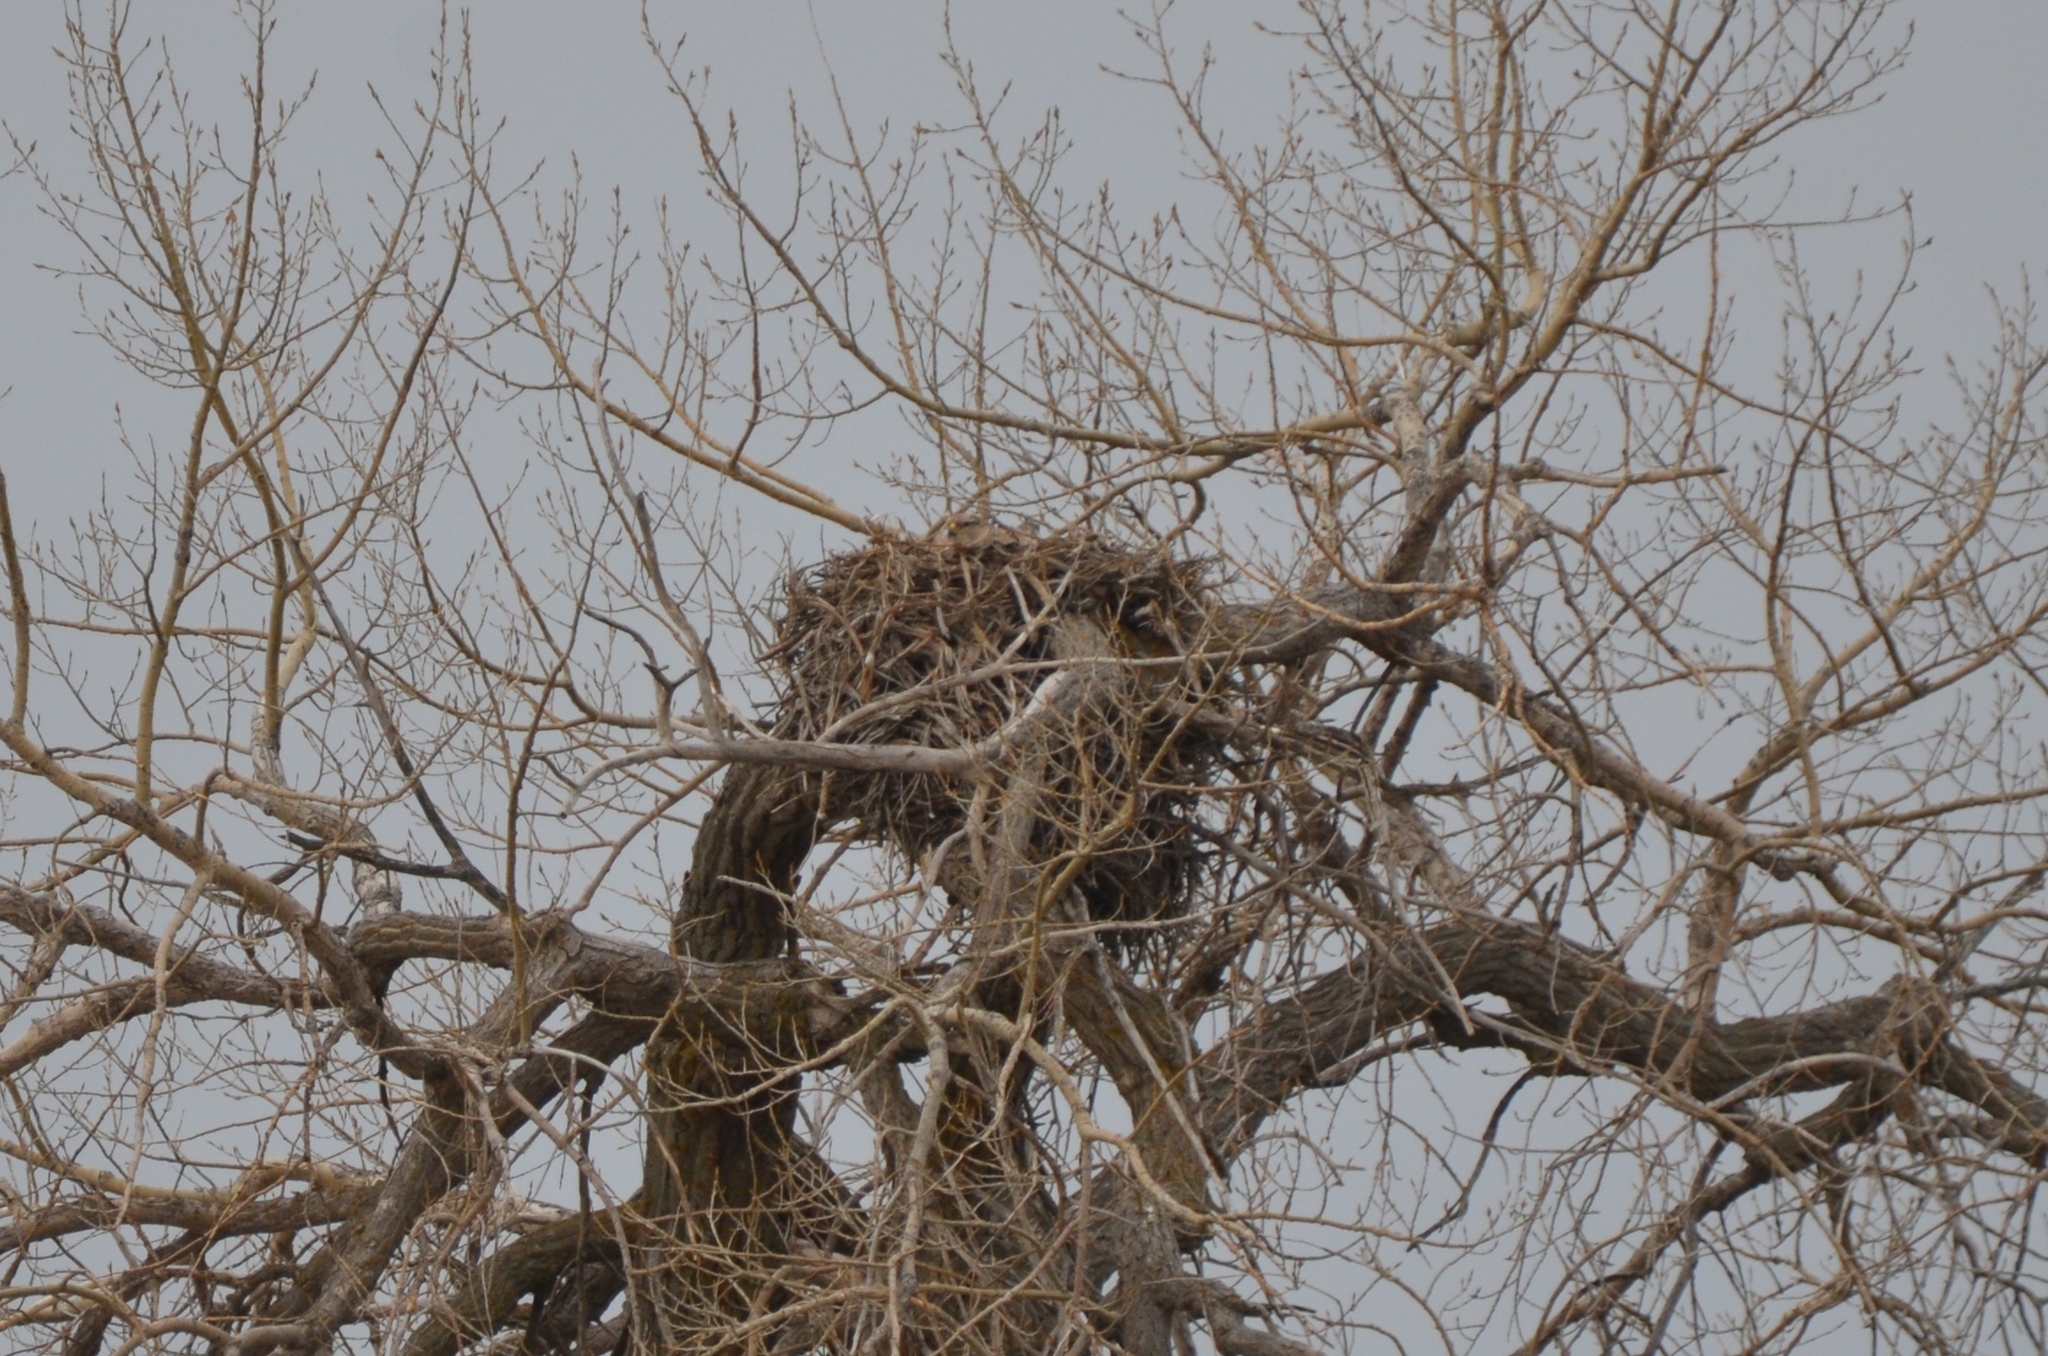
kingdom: Animalia
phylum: Chordata
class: Aves
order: Accipitriformes
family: Accipitridae
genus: Buteo
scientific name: Buteo regalis
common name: Ferruginous hawk
